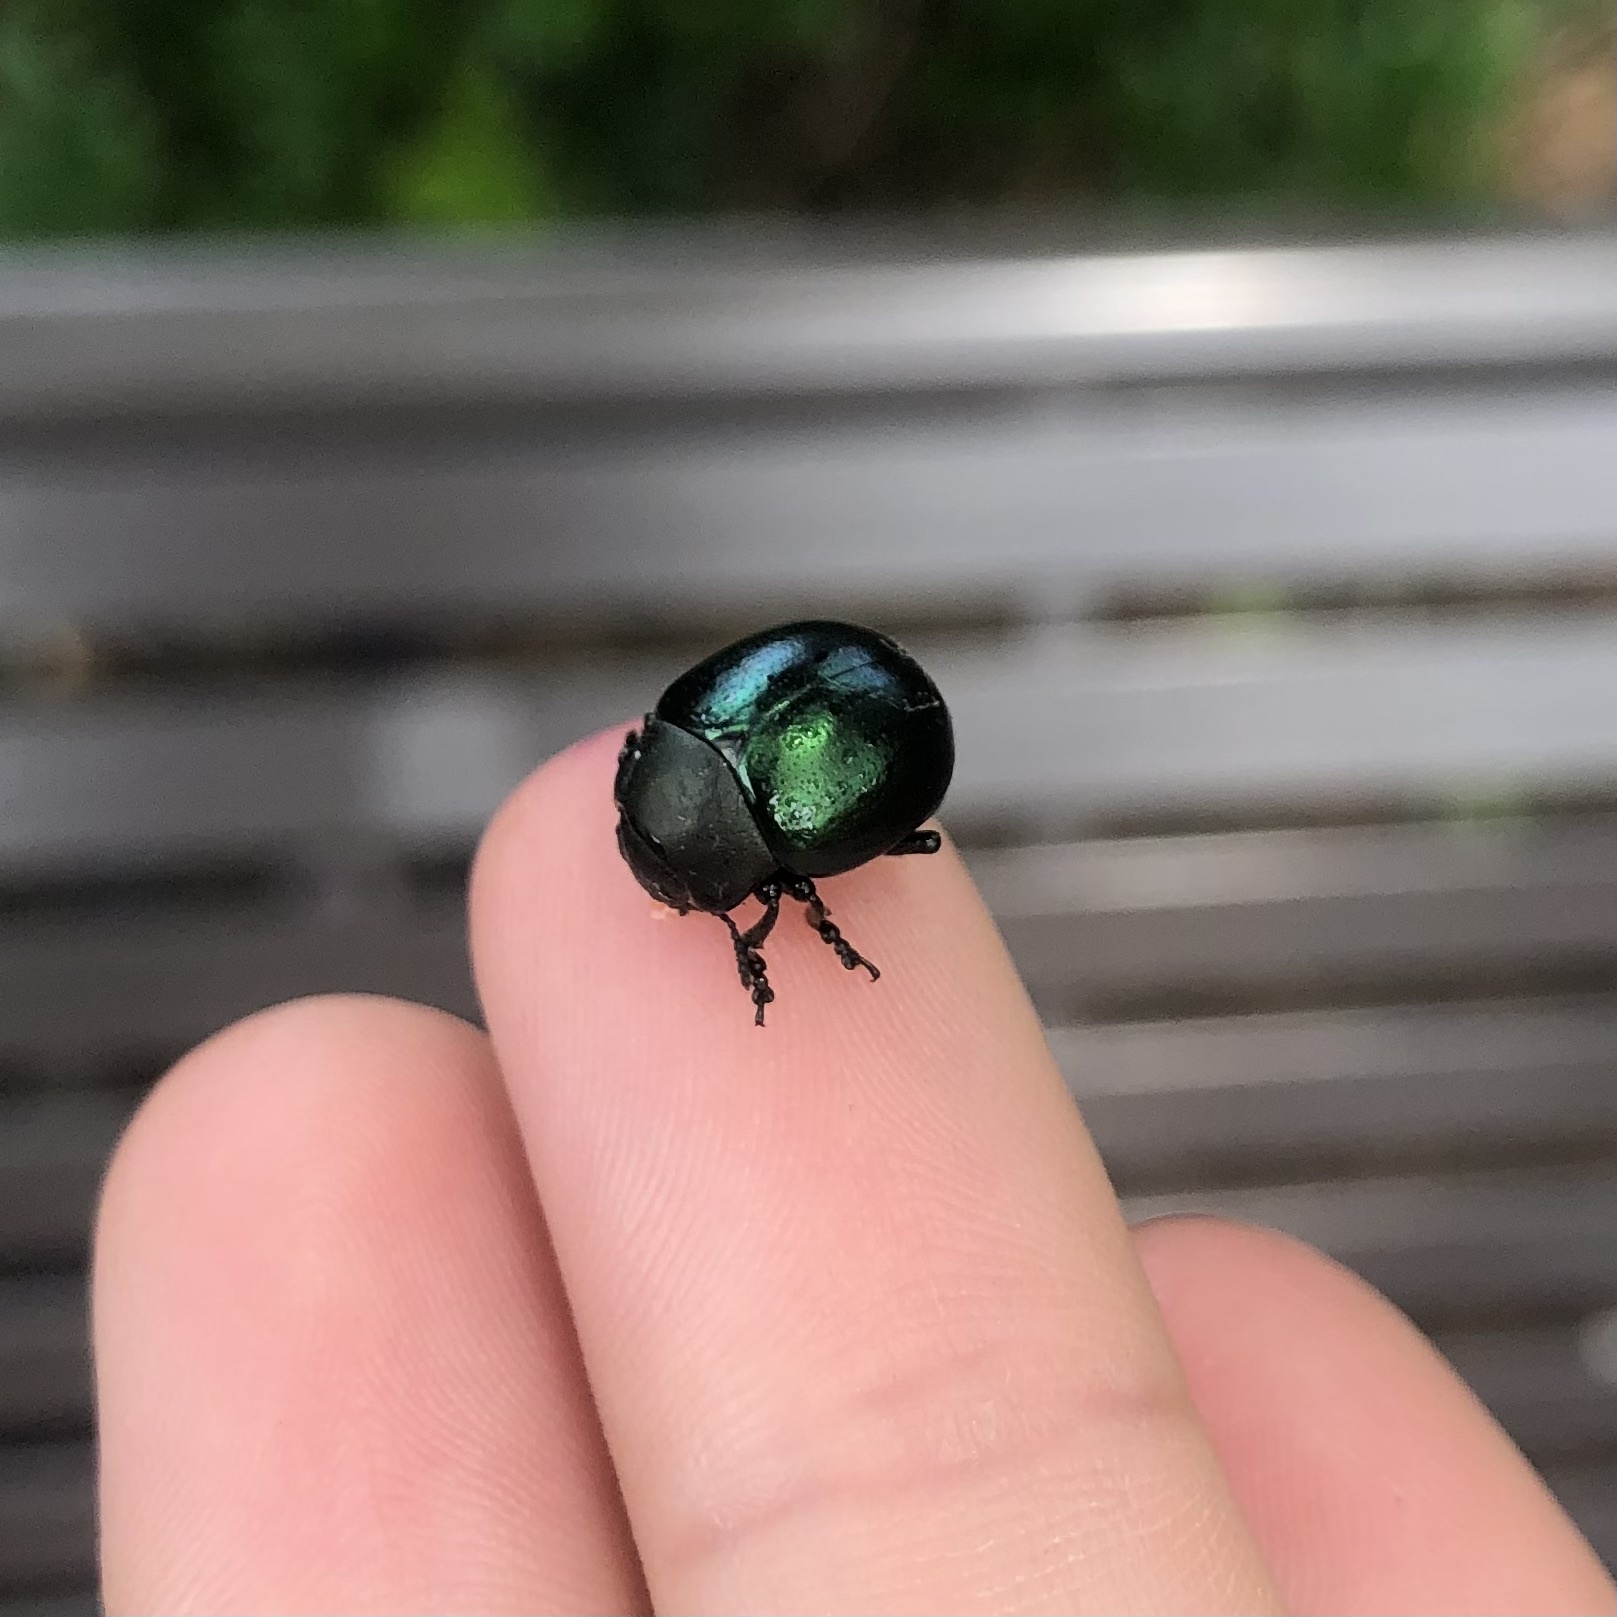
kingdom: Animalia
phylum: Arthropoda
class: Insecta
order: Coleoptera
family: Chrysomelidae
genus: Leptinotarsa
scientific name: Leptinotarsa haldemani
